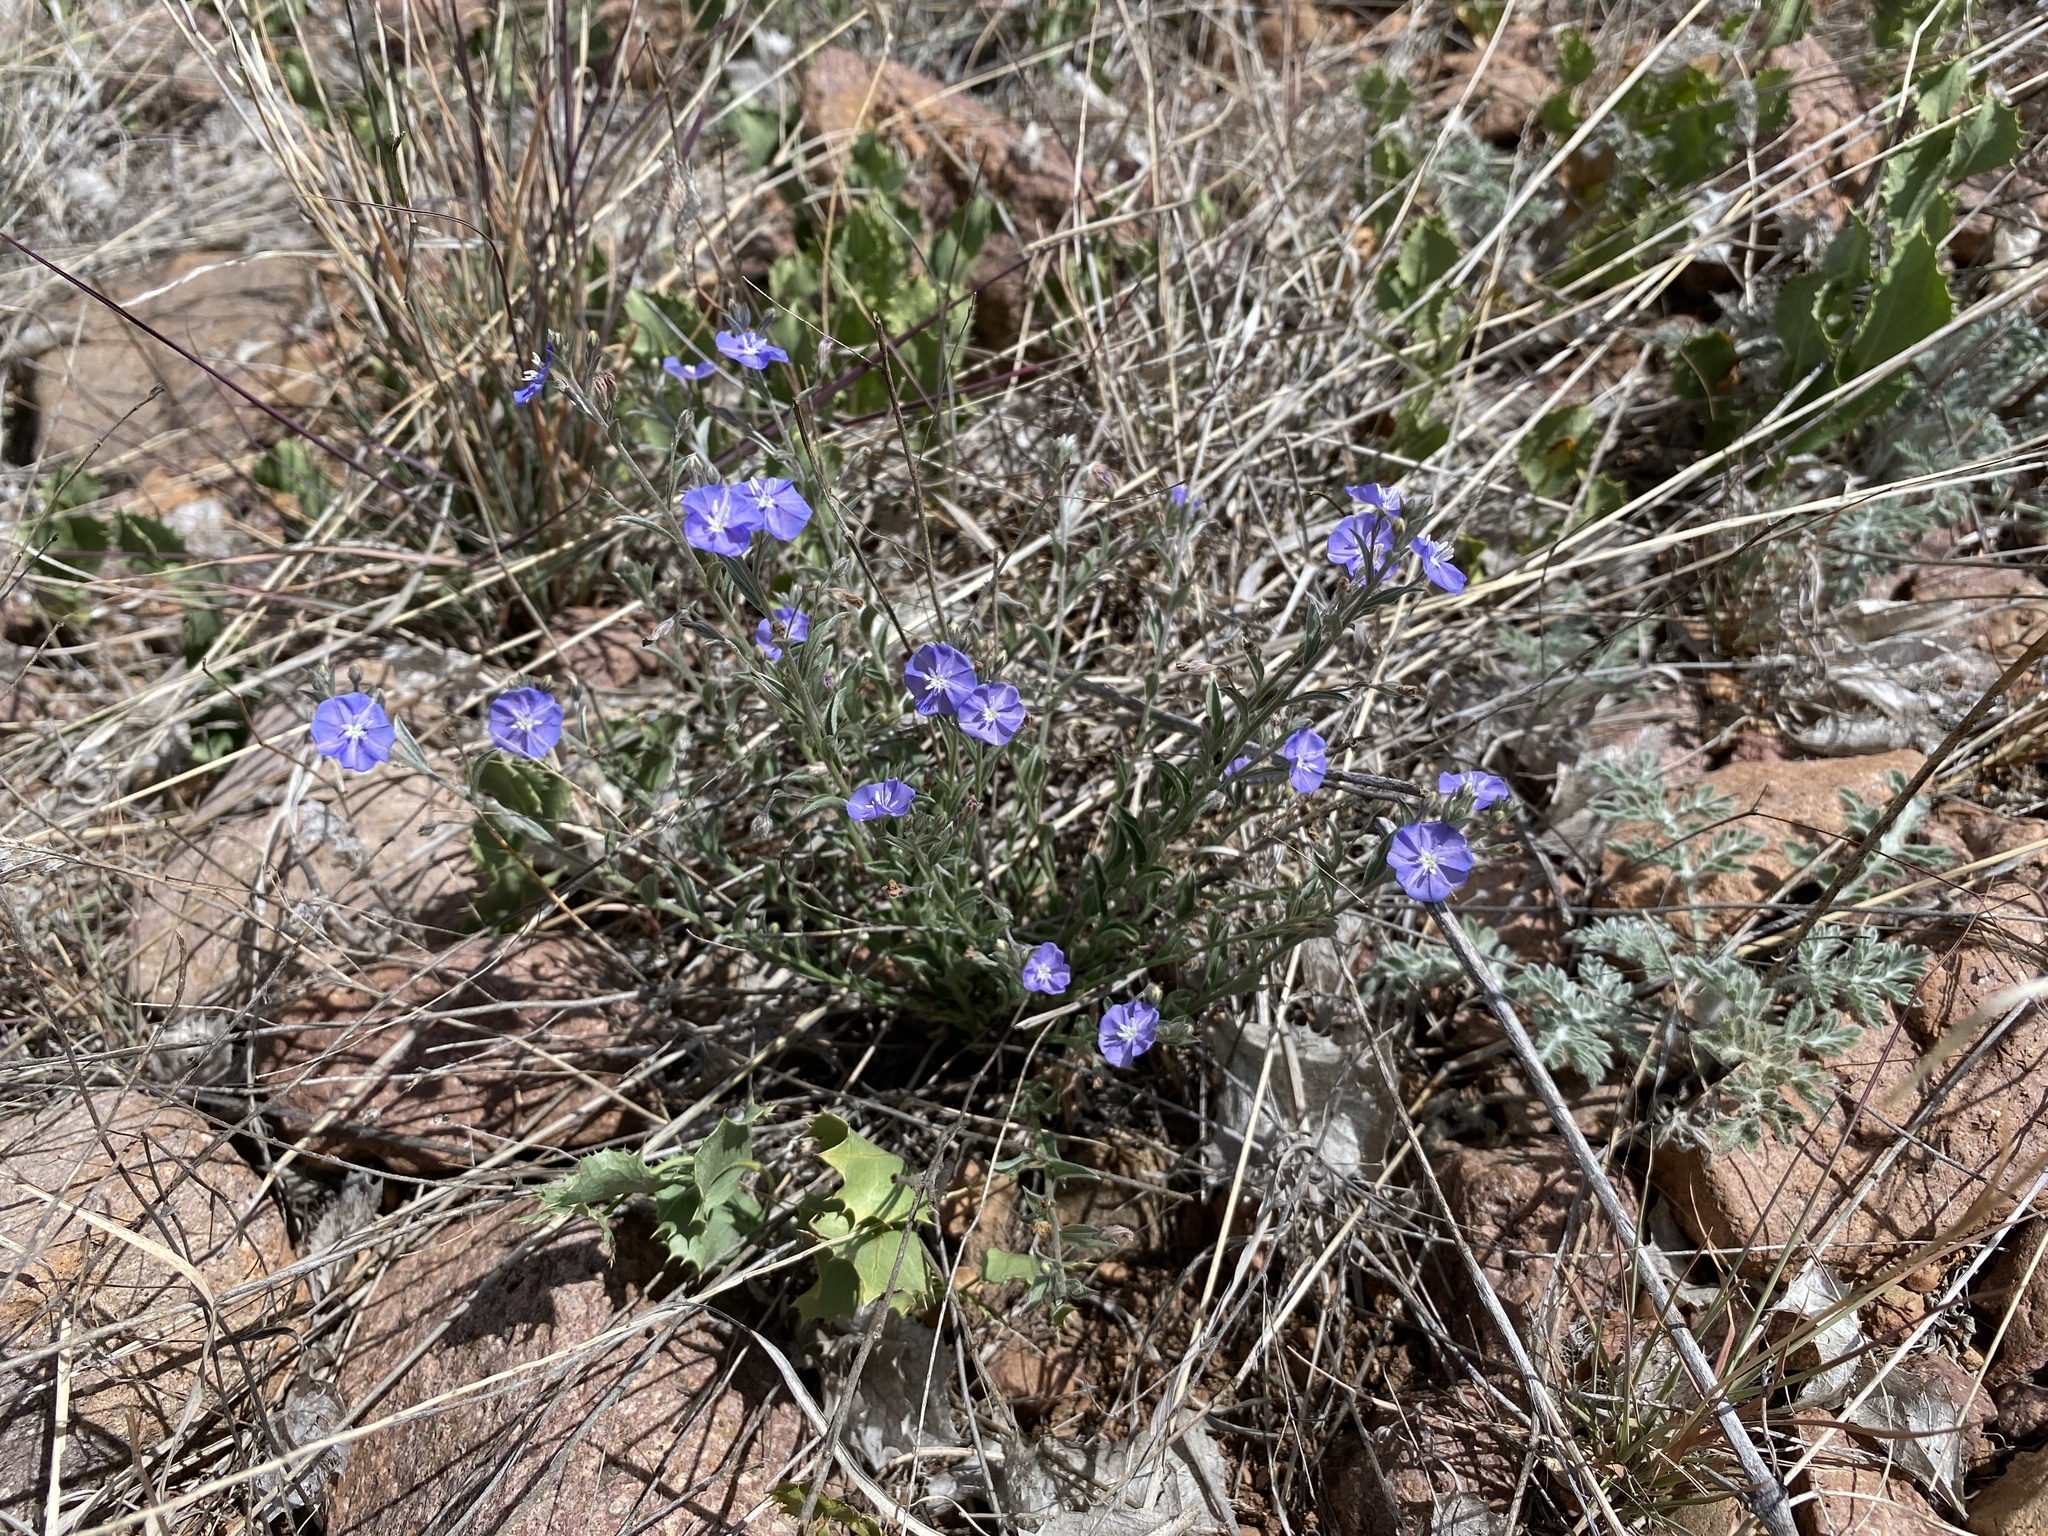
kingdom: Plantae
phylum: Tracheophyta
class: Magnoliopsida
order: Solanales
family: Convolvulaceae
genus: Evolvulus
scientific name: Evolvulus arizonicus
